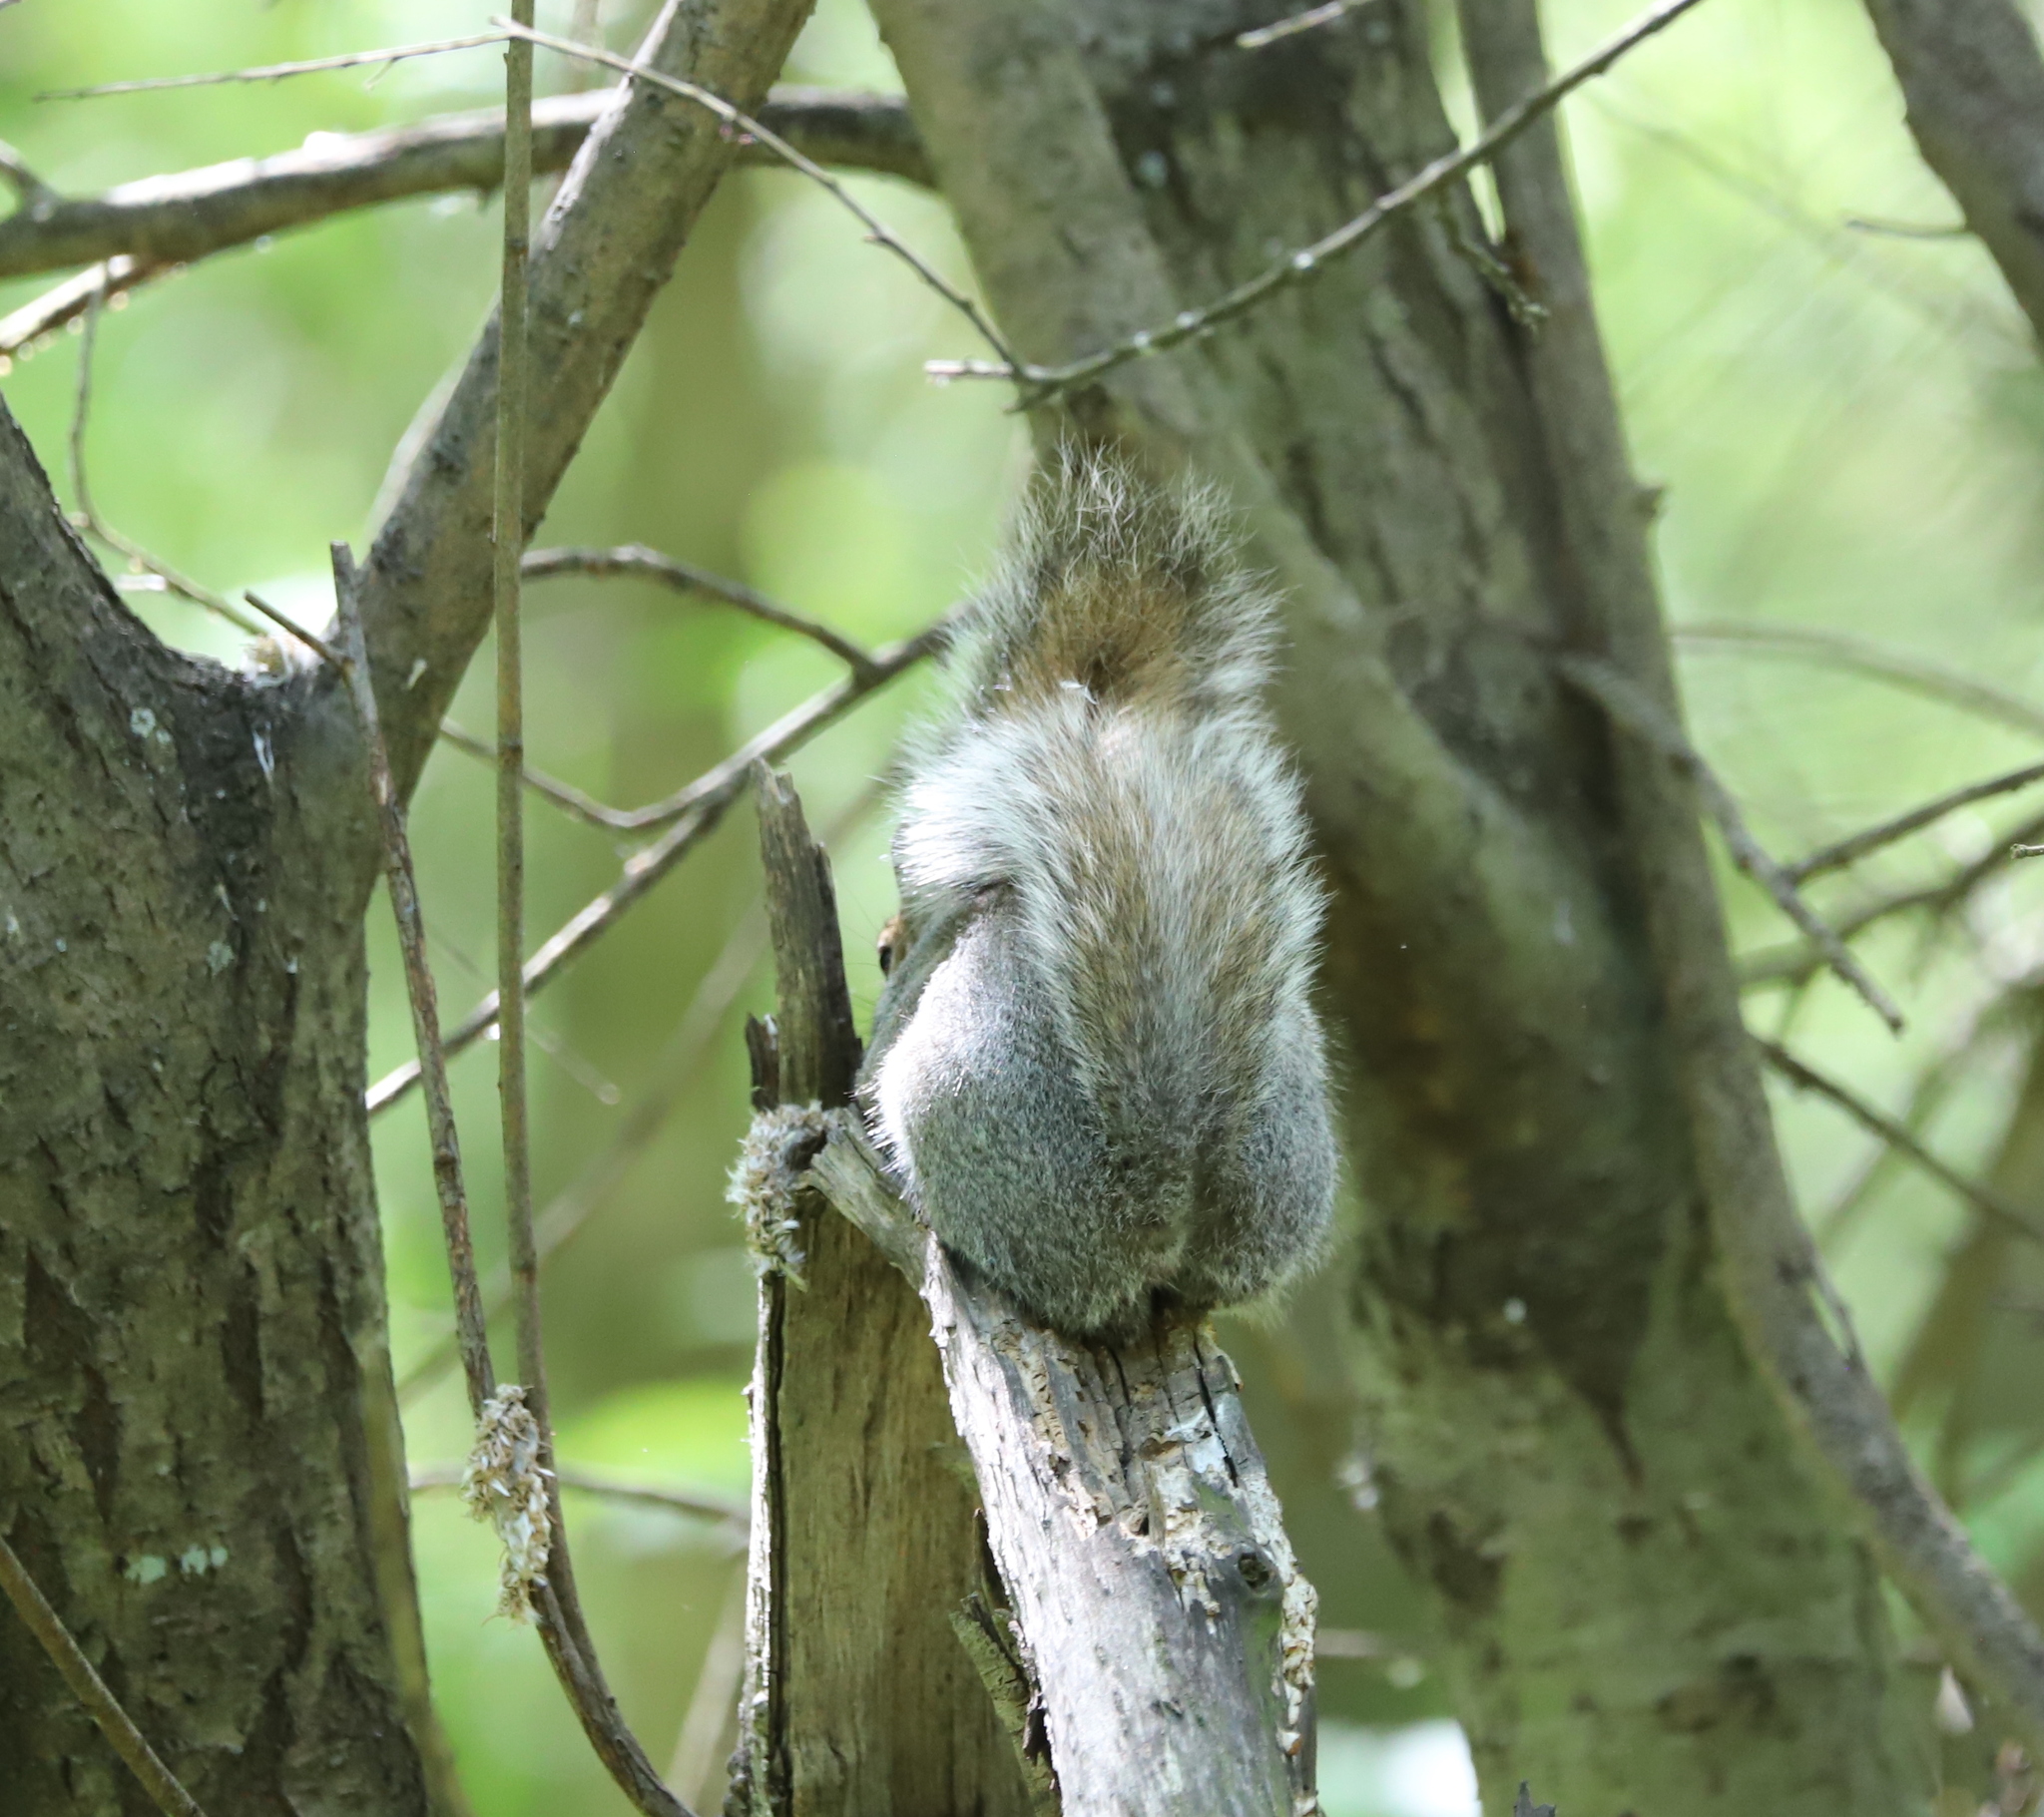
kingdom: Animalia
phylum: Chordata
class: Mammalia
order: Rodentia
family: Sciuridae
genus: Sciurus
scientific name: Sciurus carolinensis
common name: Eastern gray squirrel
